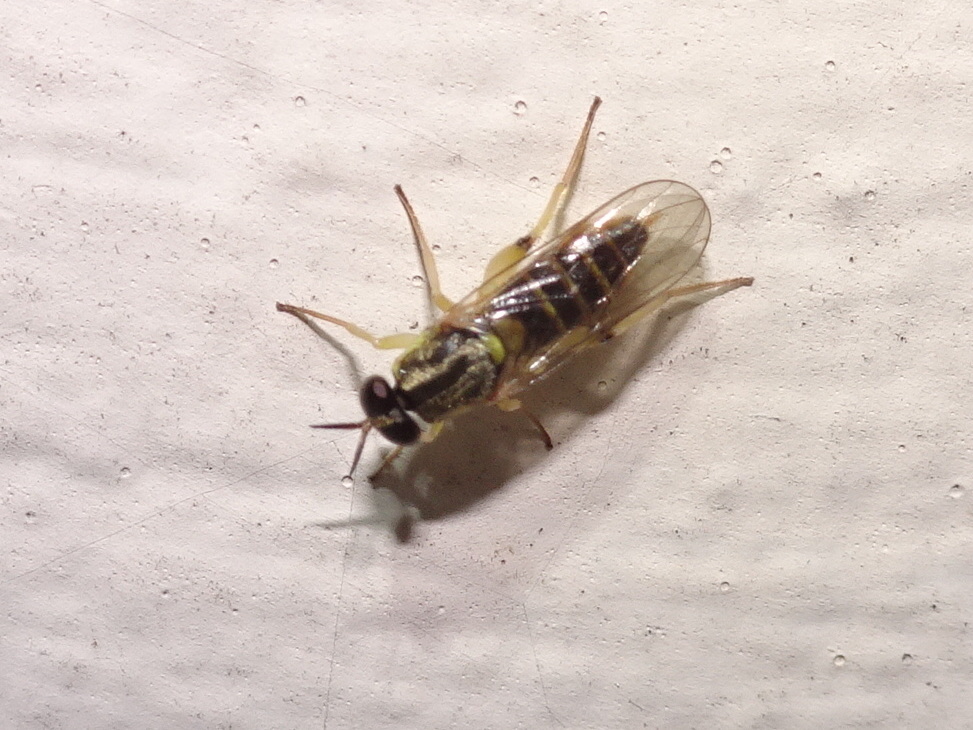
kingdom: Animalia
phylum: Arthropoda
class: Insecta
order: Diptera
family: Xylomyidae
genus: Solva
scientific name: Solva pallipes
